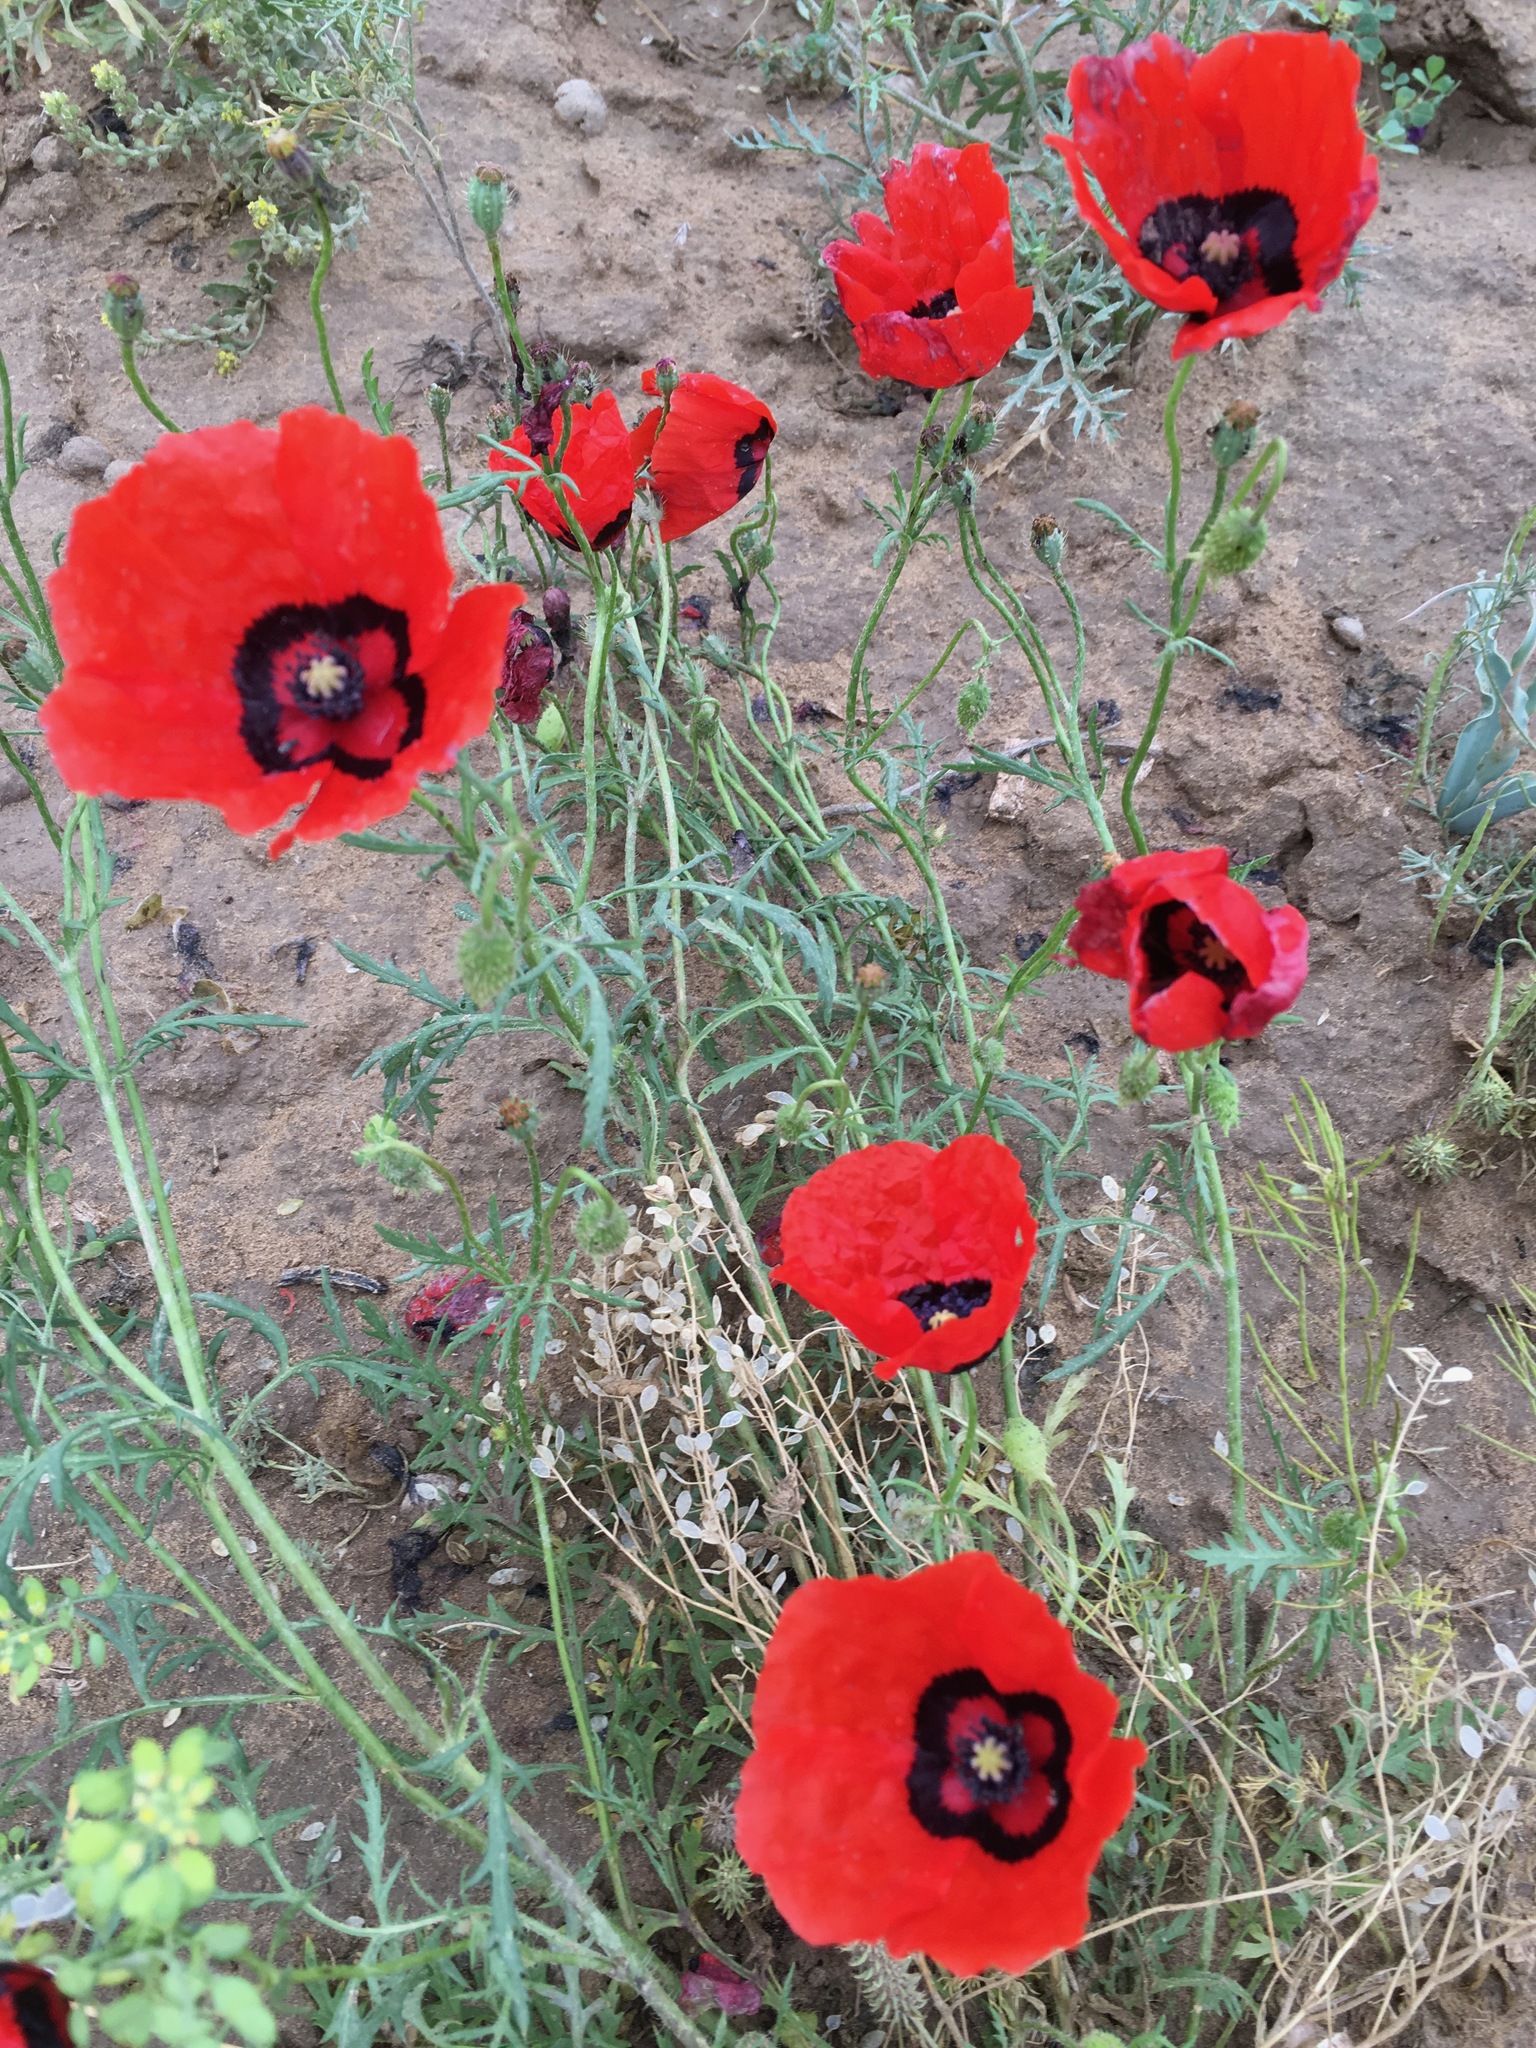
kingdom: Plantae
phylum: Tracheophyta
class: Magnoliopsida
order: Ranunculales
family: Papaveraceae
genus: Roemeria
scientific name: Roemeria pavonina
